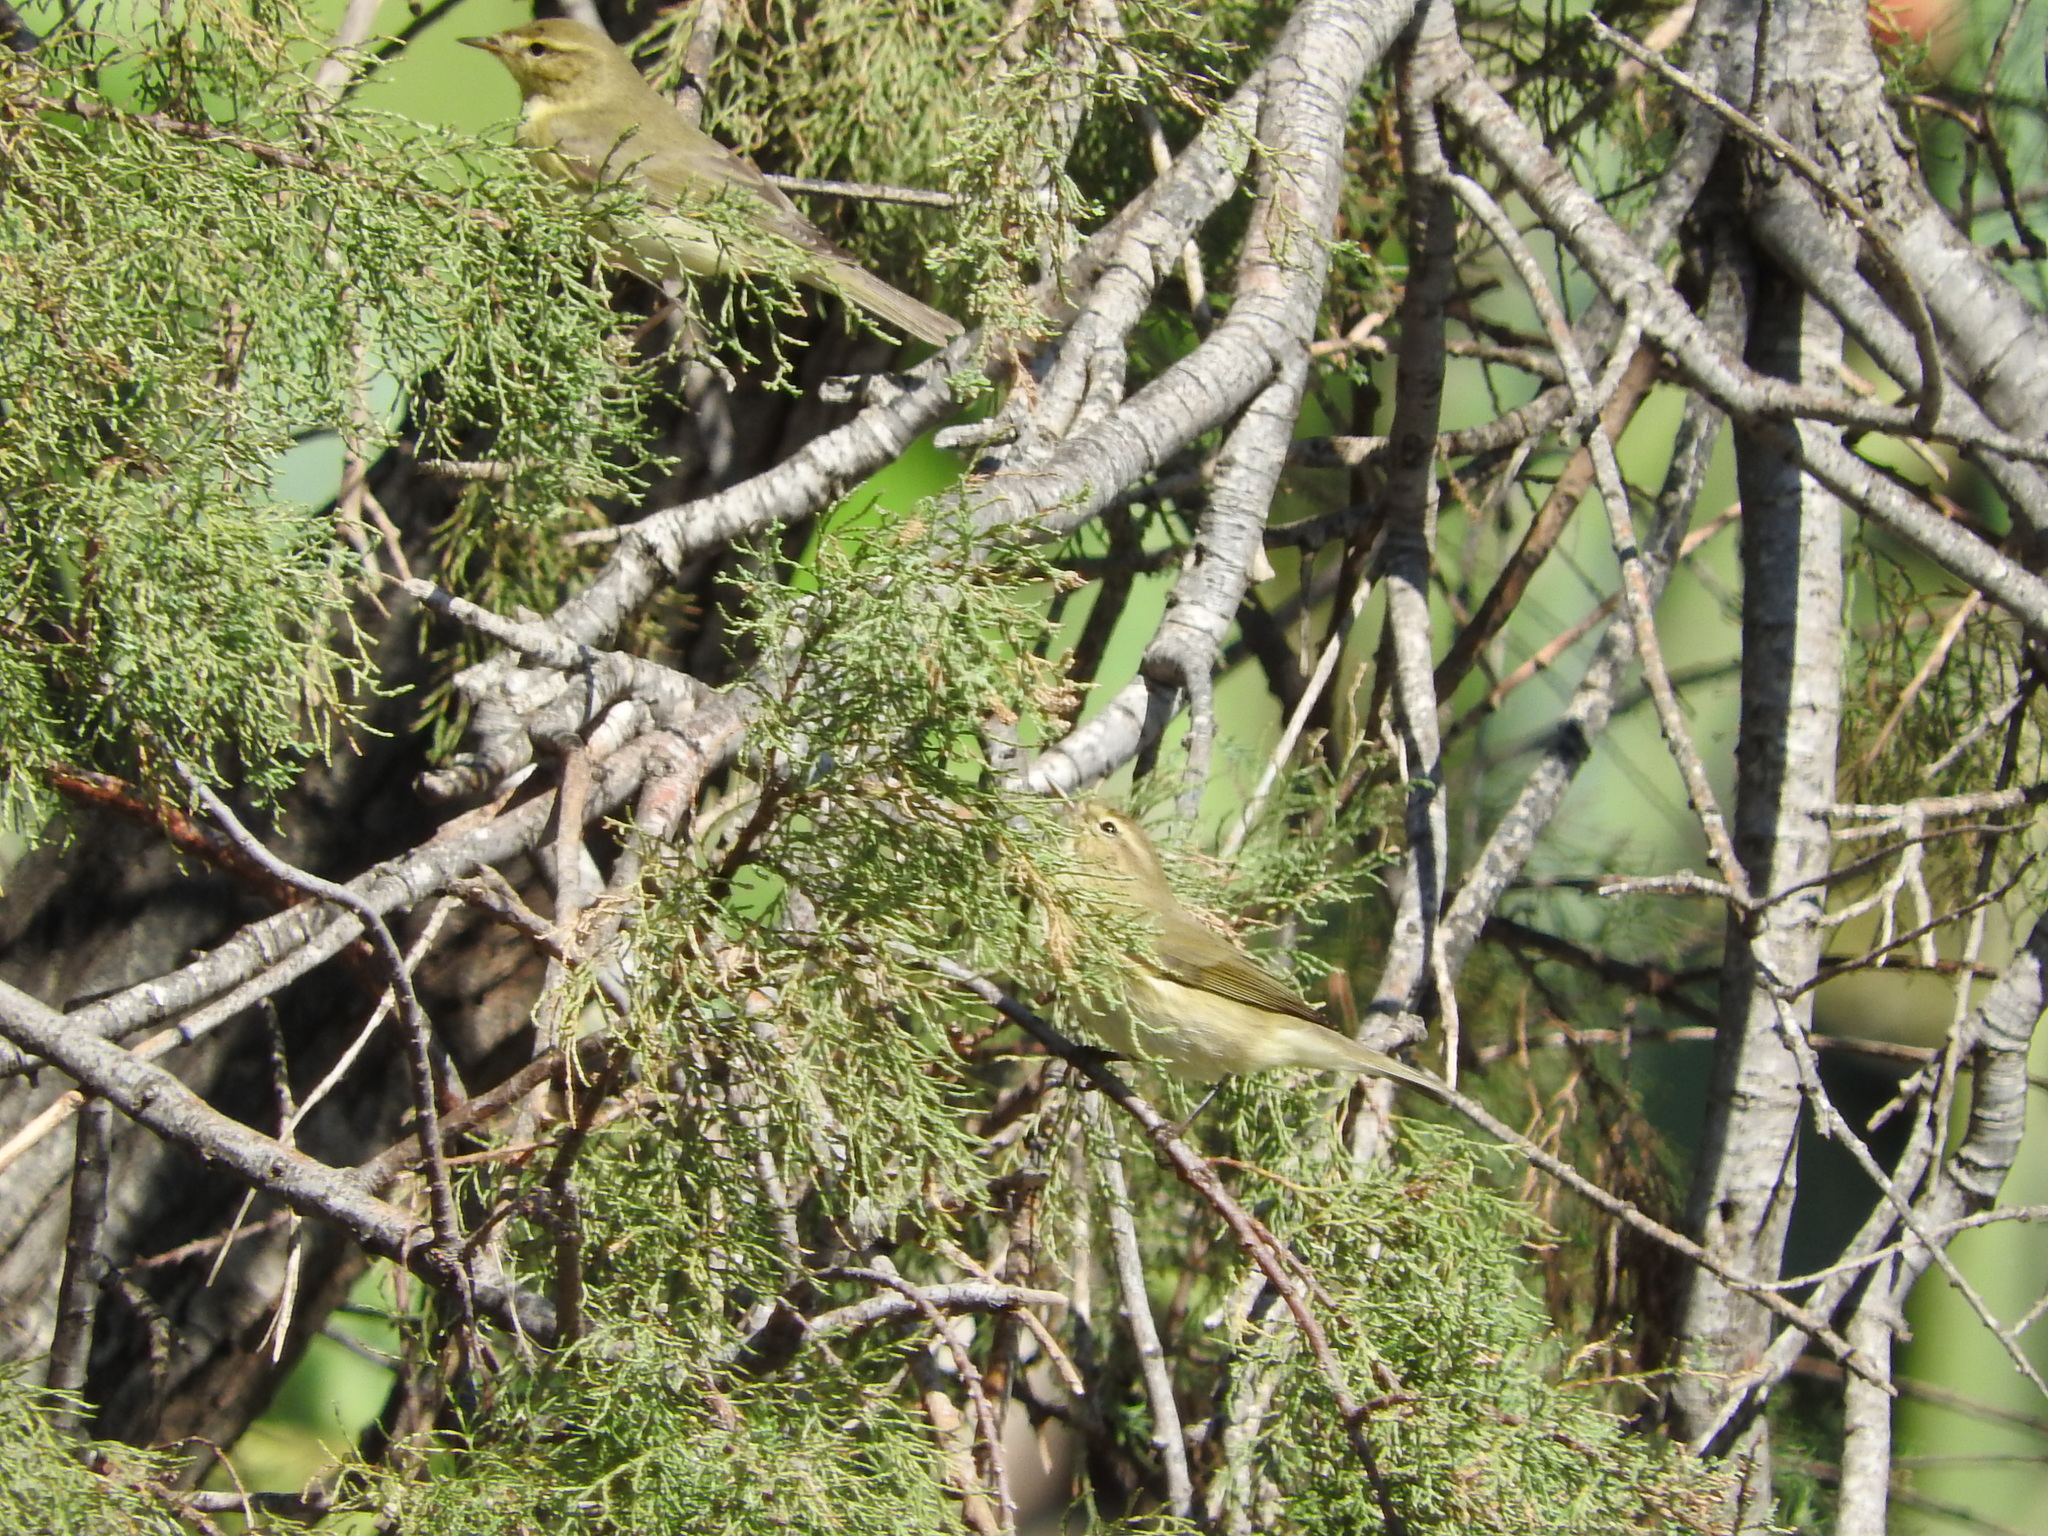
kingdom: Animalia
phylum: Chordata
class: Aves
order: Passeriformes
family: Phylloscopidae
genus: Phylloscopus
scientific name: Phylloscopus collybita
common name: Common chiffchaff
